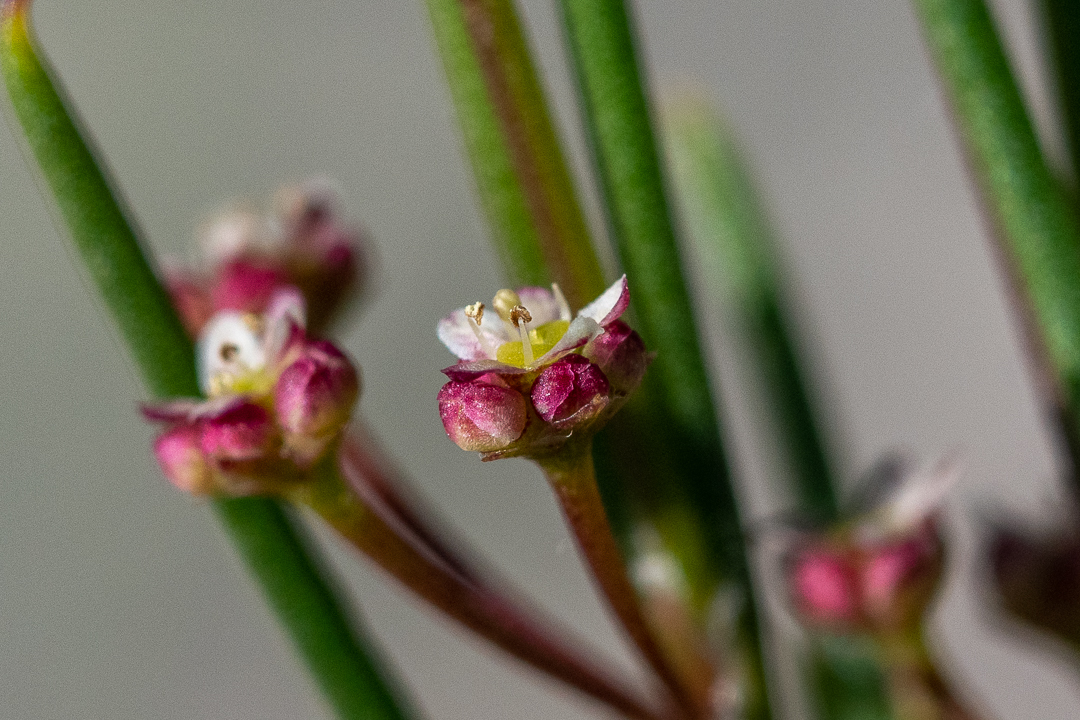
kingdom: Plantae
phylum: Tracheophyta
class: Magnoliopsida
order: Apiales
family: Apiaceae
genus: Centella
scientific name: Centella macrocarpa
